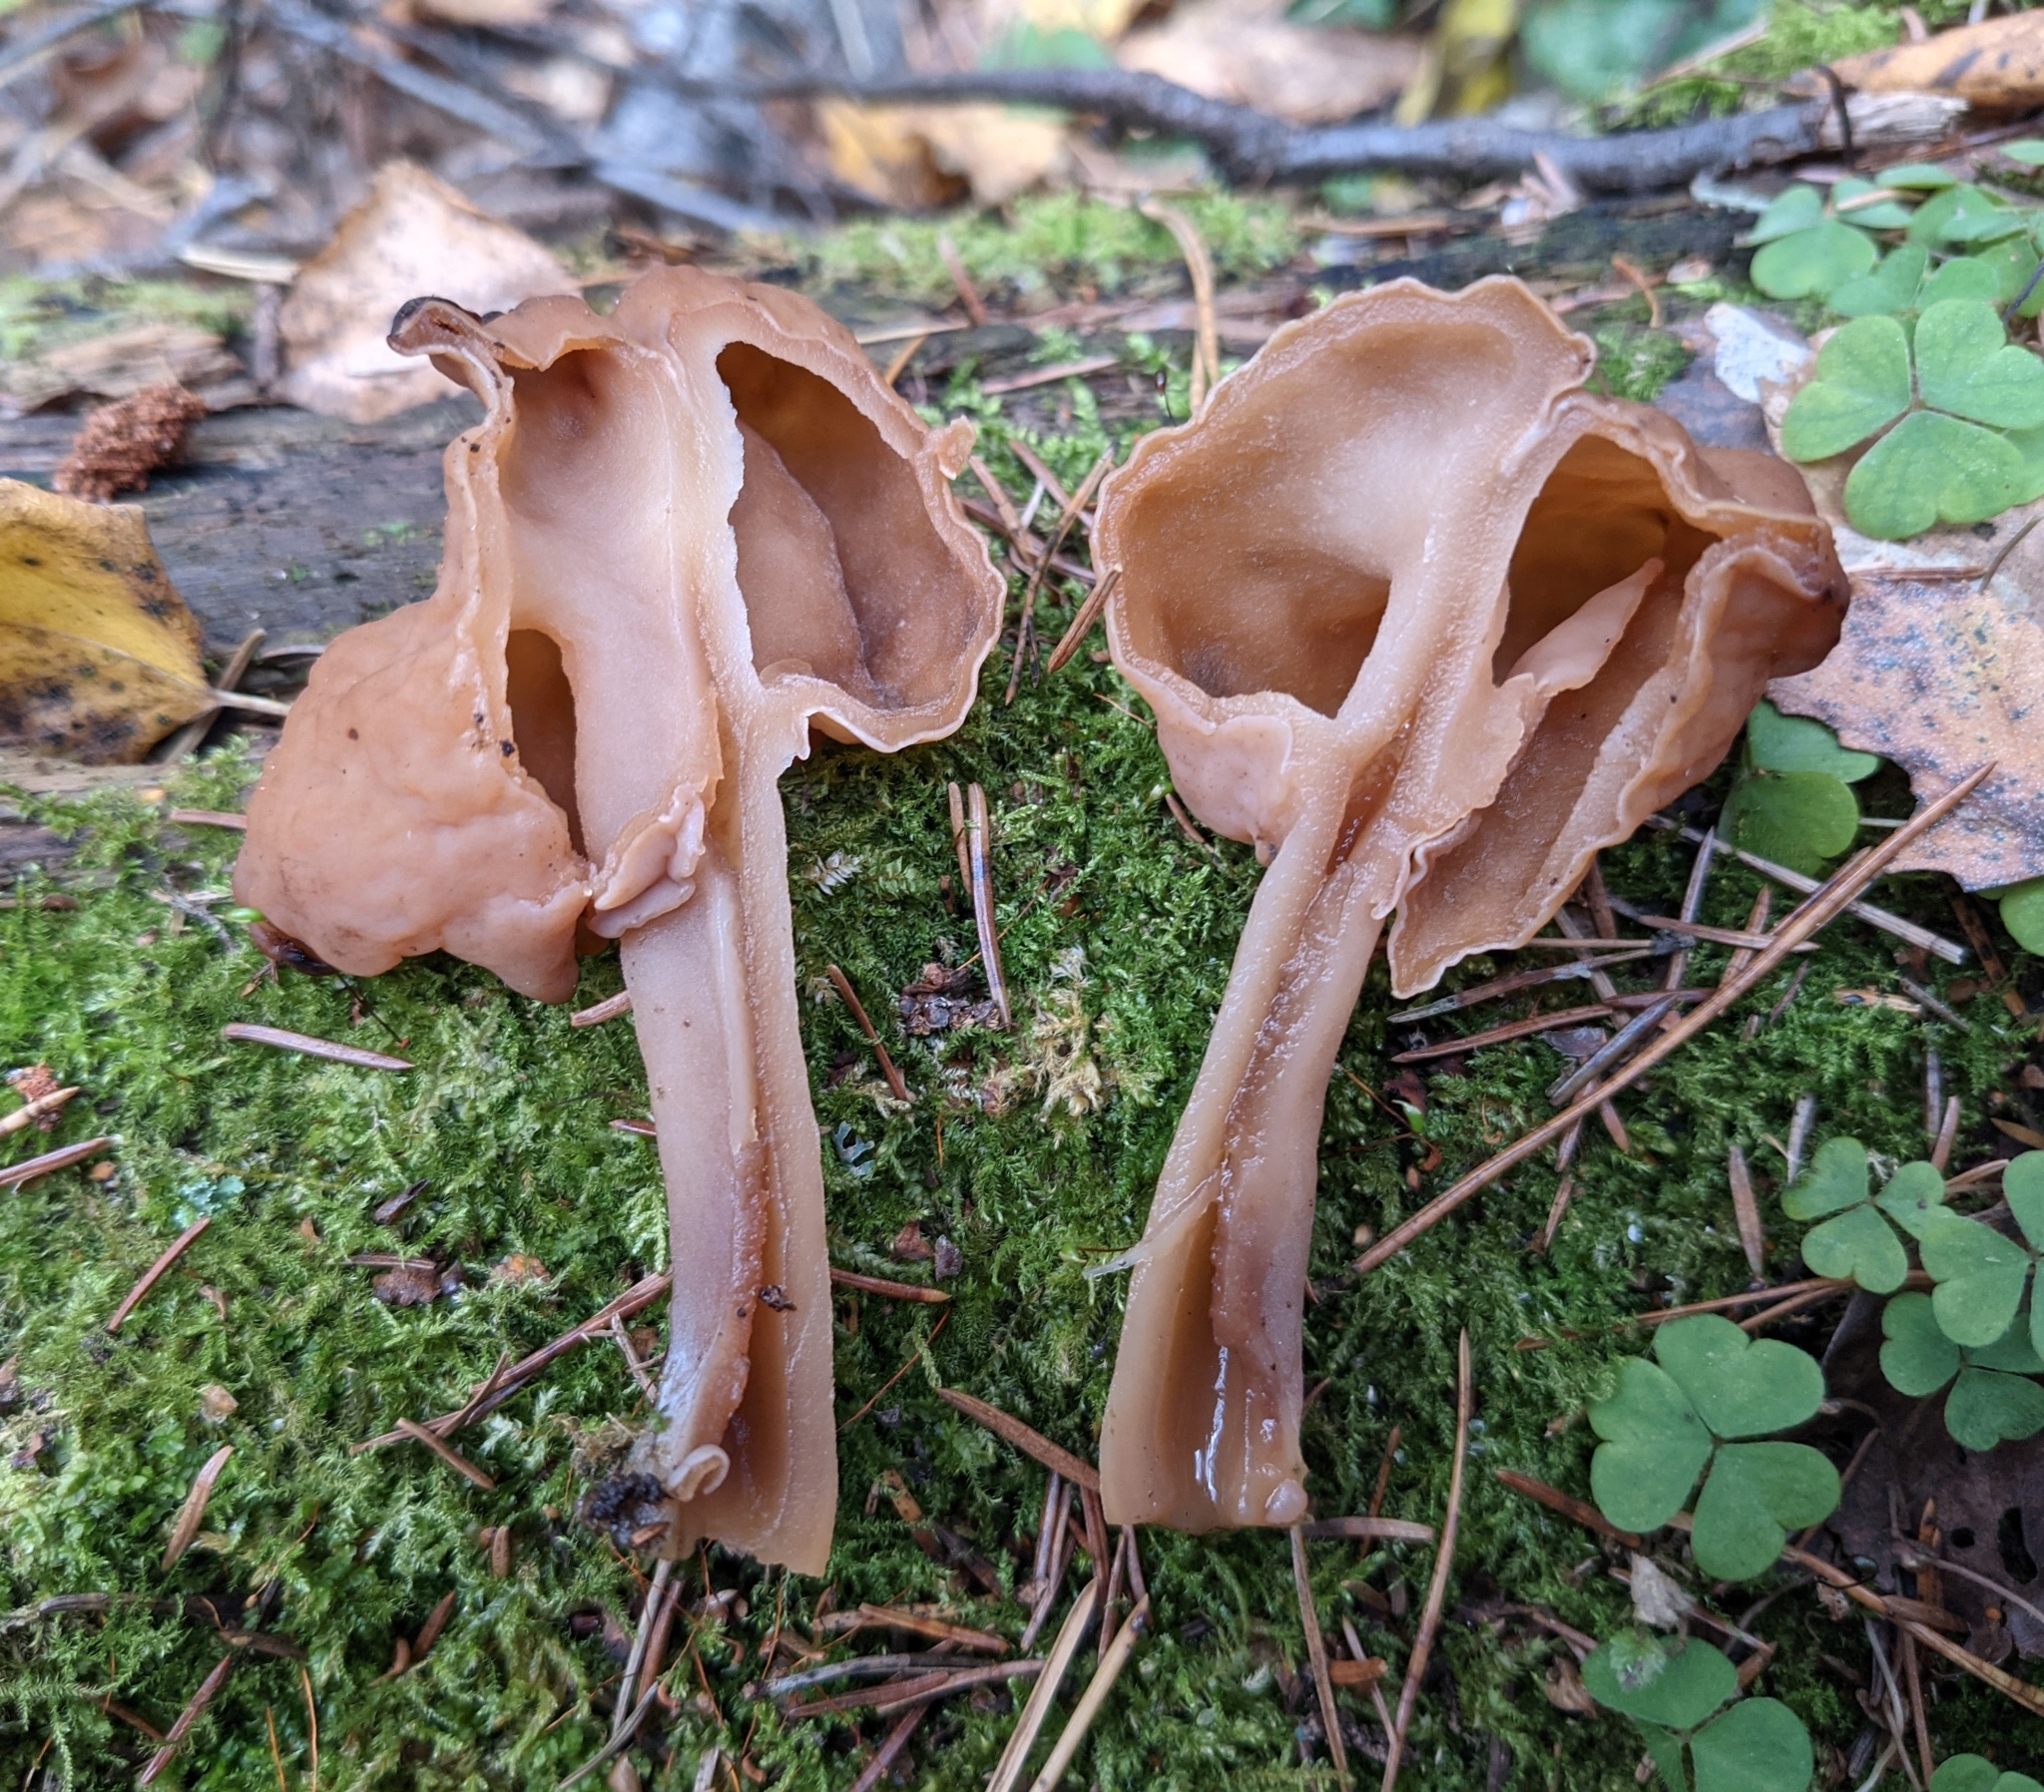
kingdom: Fungi
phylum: Ascomycota
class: Pezizomycetes
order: Pezizales
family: Discinaceae
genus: Gyromitra
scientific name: Gyromitra infula
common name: Pouched false morel
